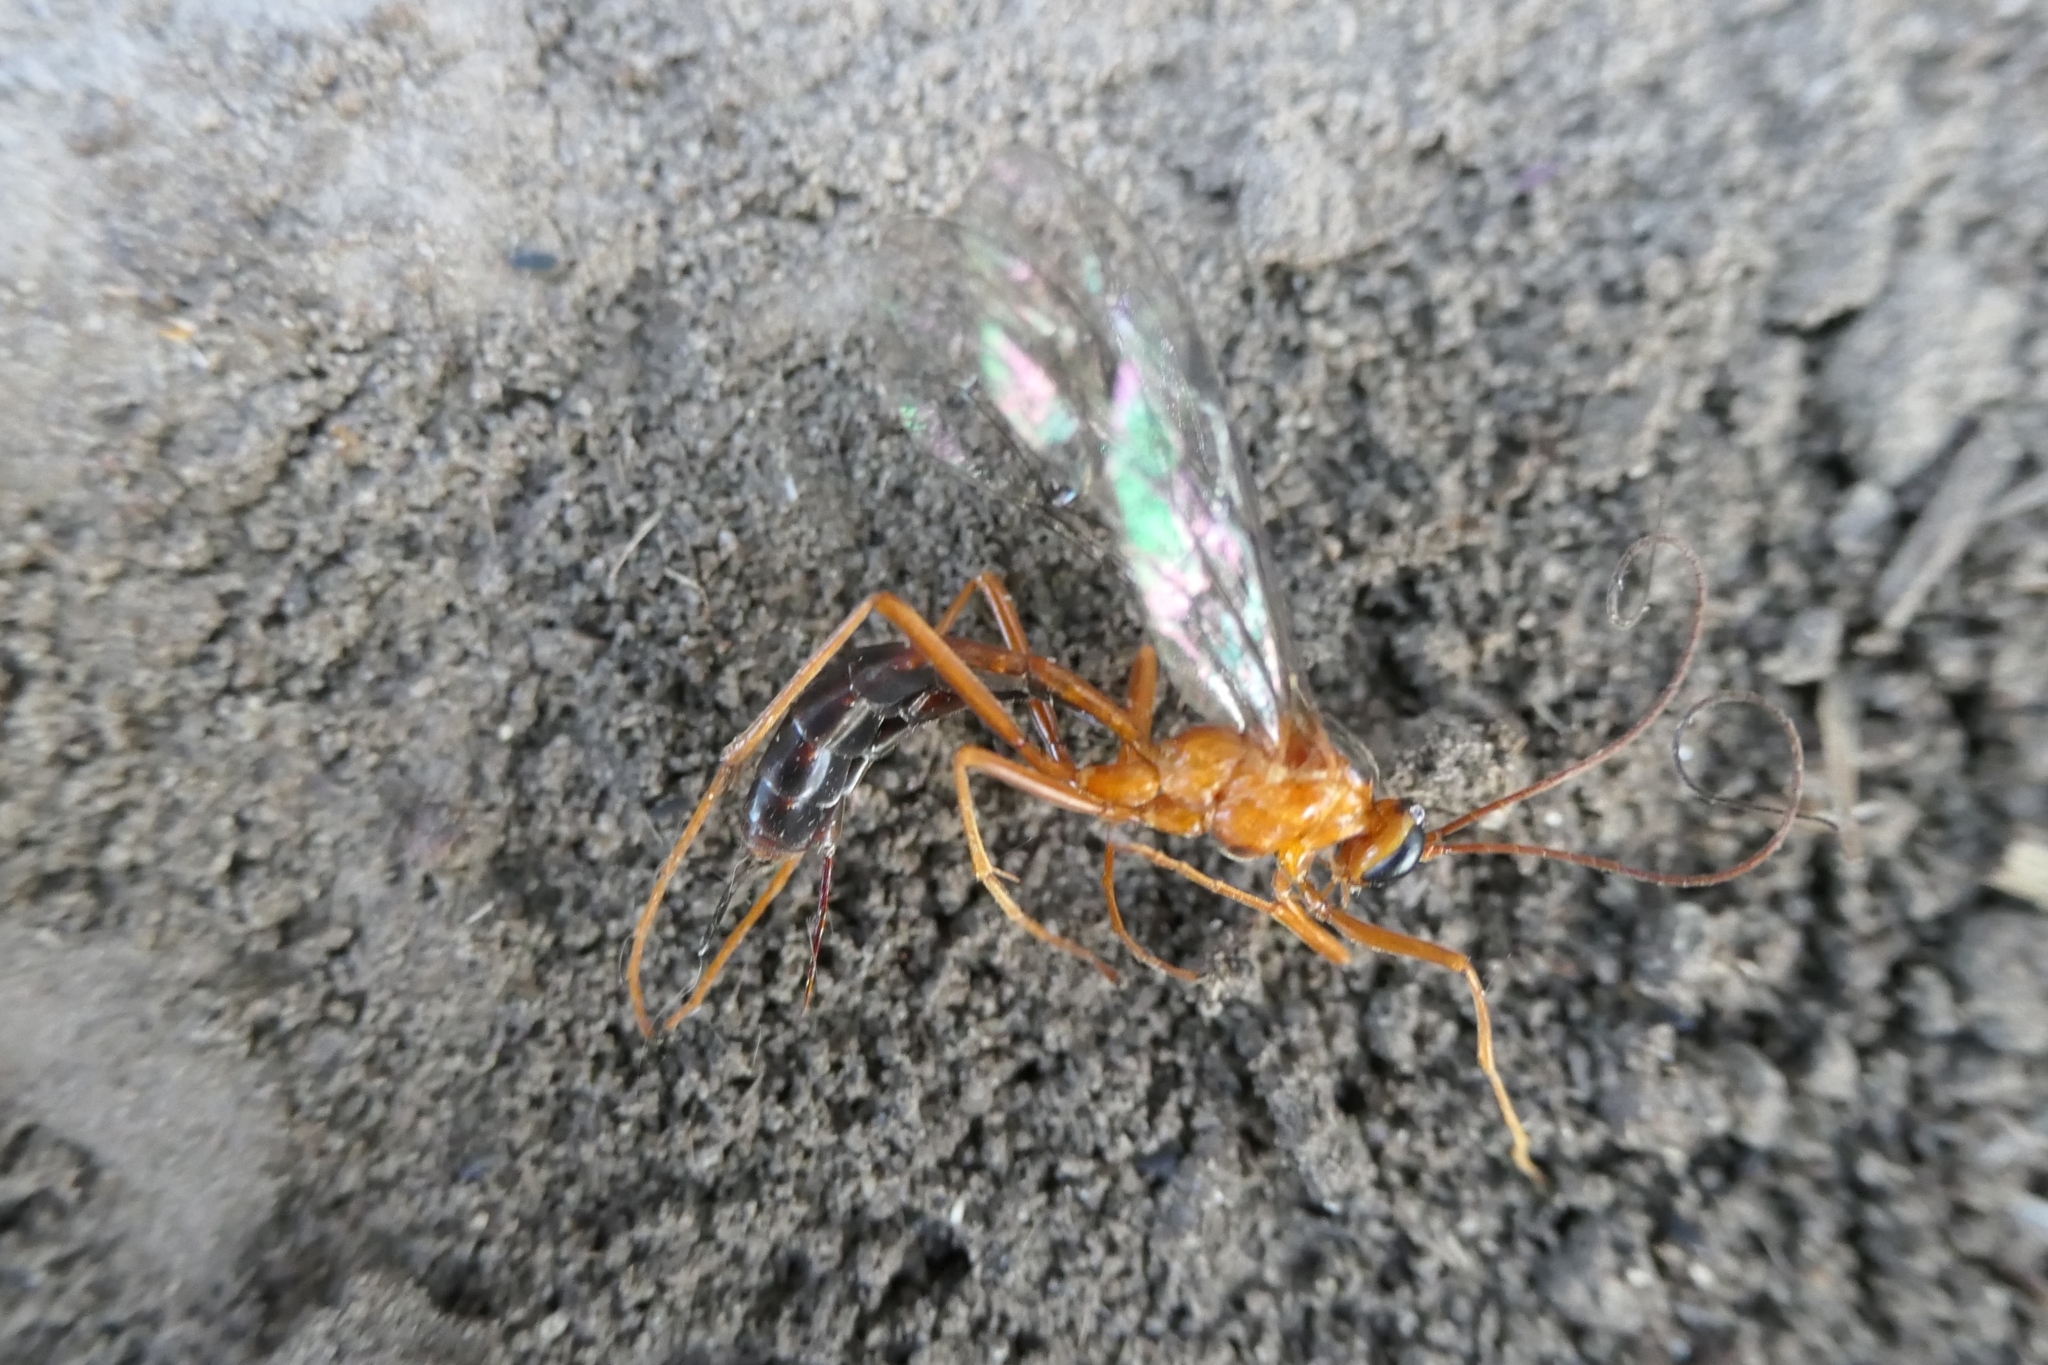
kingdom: Animalia
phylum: Arthropoda
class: Insecta
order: Hymenoptera
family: Ichneumonidae
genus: Netelia
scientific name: Netelia ephippiata
